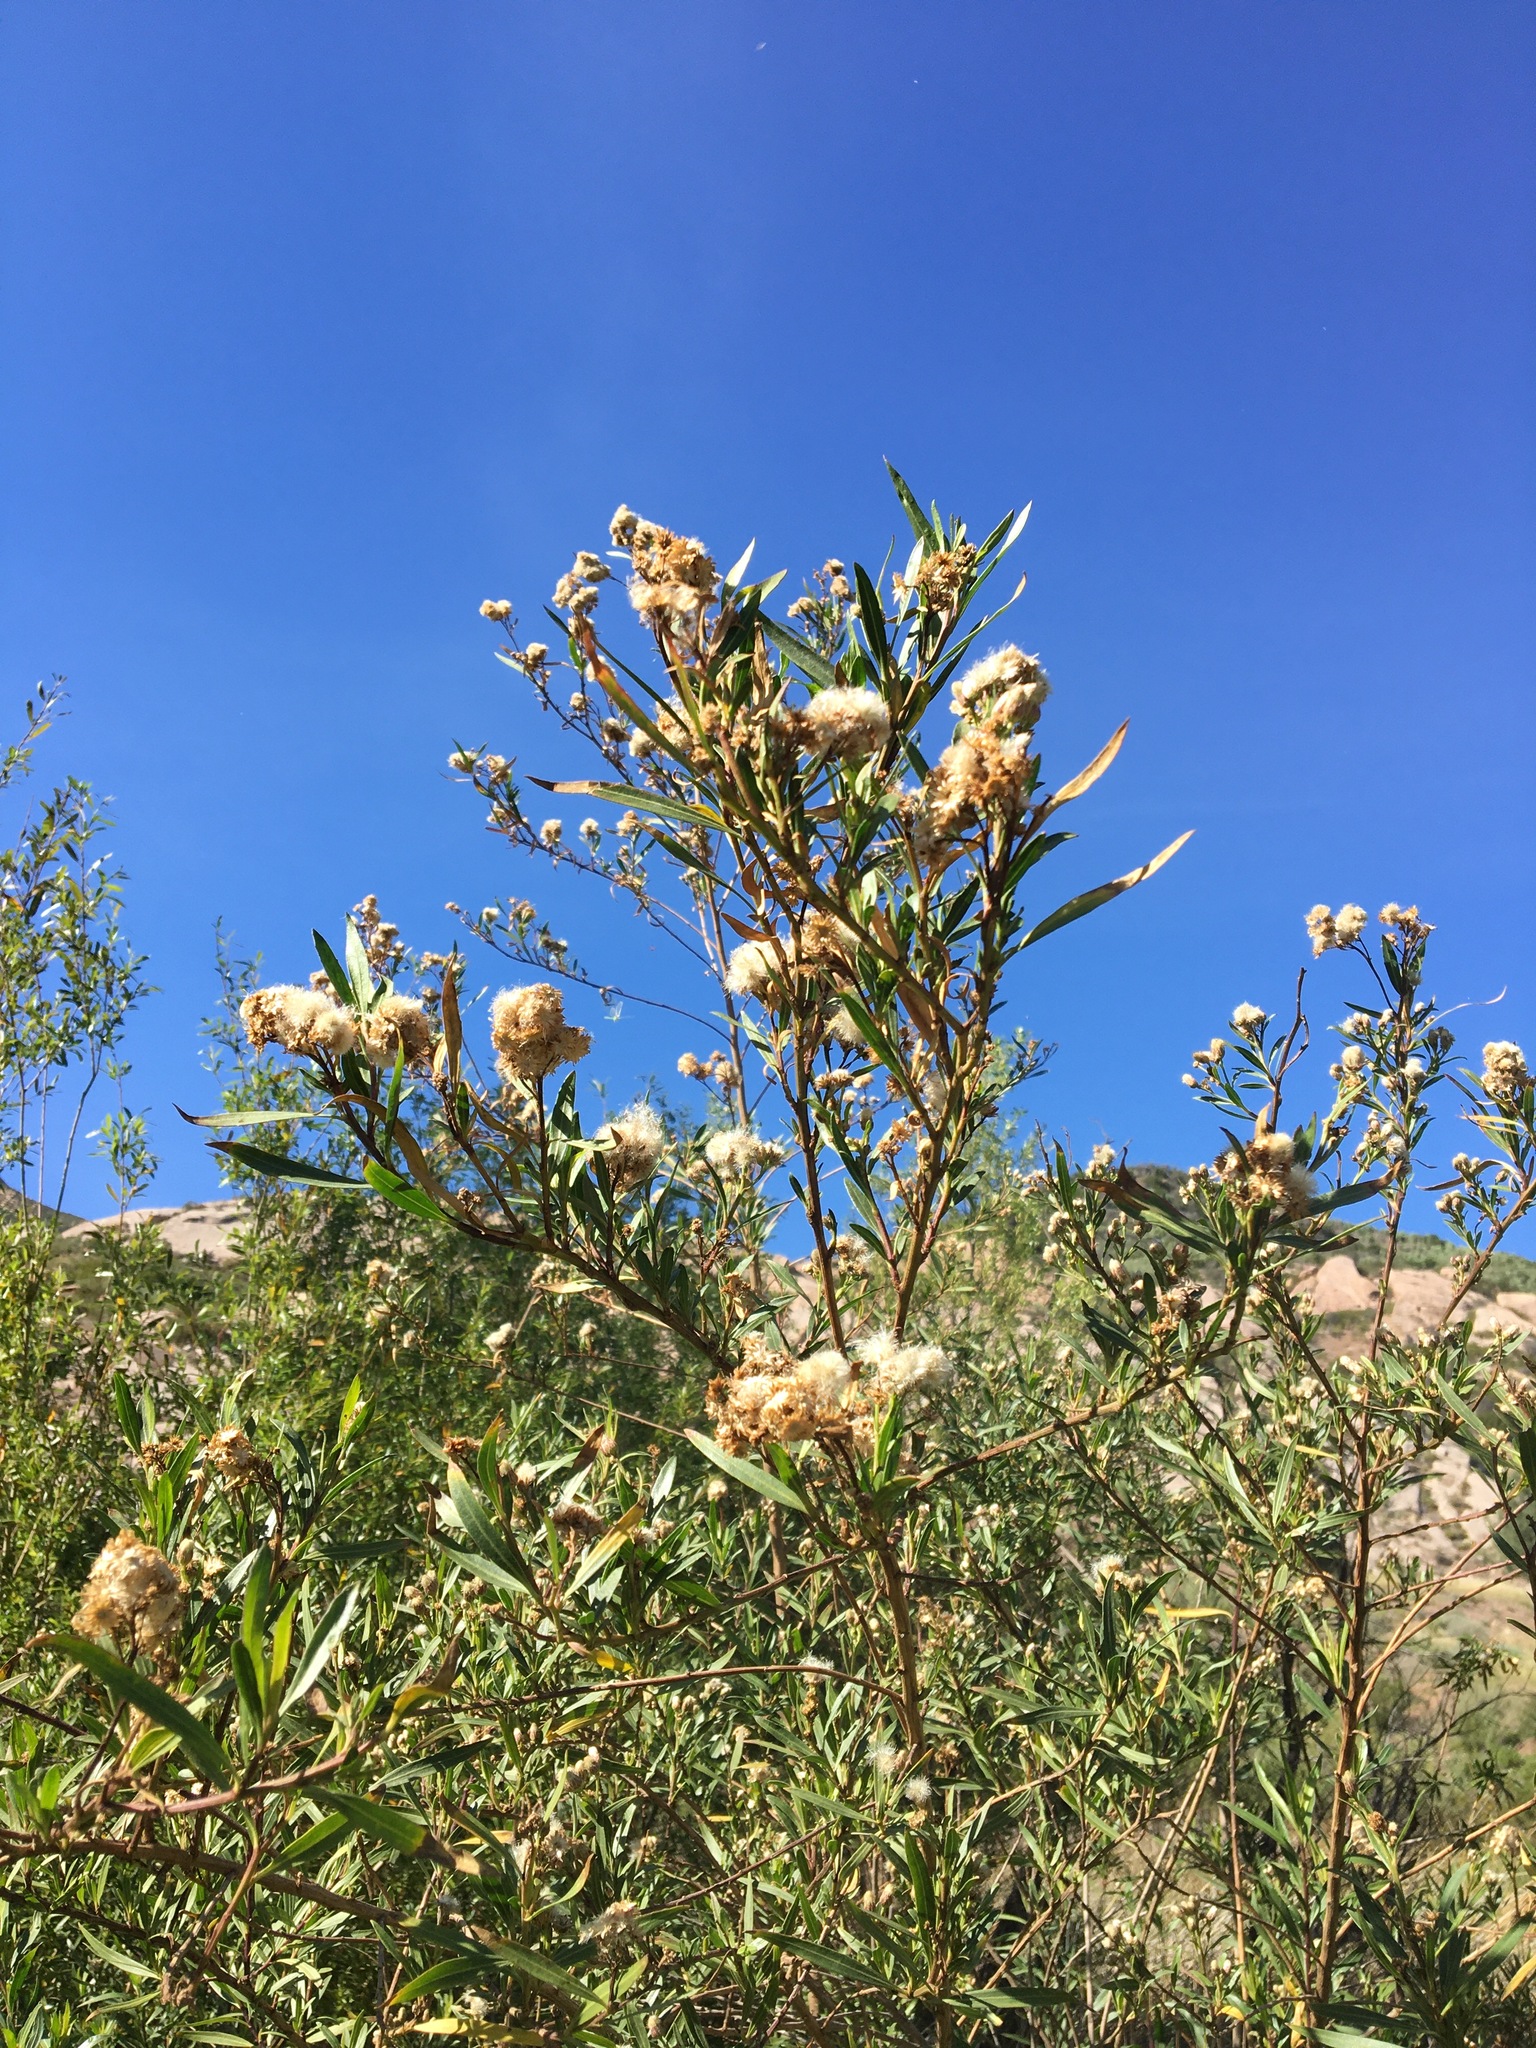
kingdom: Plantae
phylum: Tracheophyta
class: Magnoliopsida
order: Asterales
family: Asteraceae
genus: Baccharis
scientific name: Baccharis salicifolia
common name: Sticky baccharis
